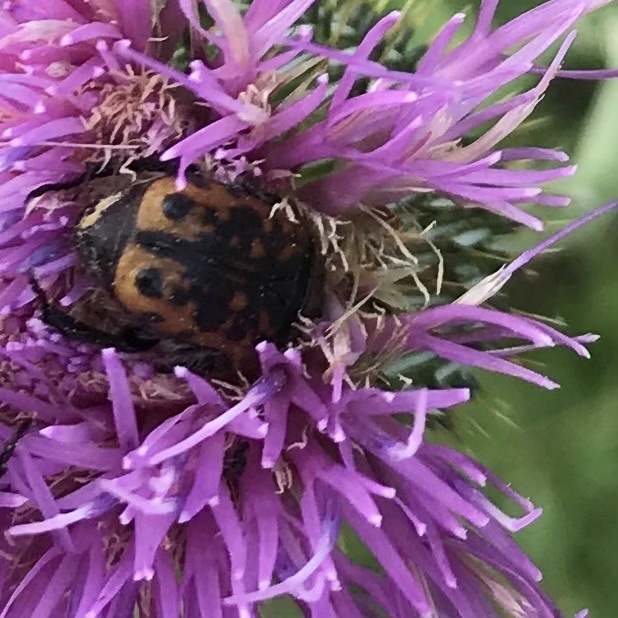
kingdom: Animalia
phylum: Arthropoda
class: Insecta
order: Coleoptera
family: Scarabaeidae
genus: Euphoria
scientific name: Euphoria kernii
